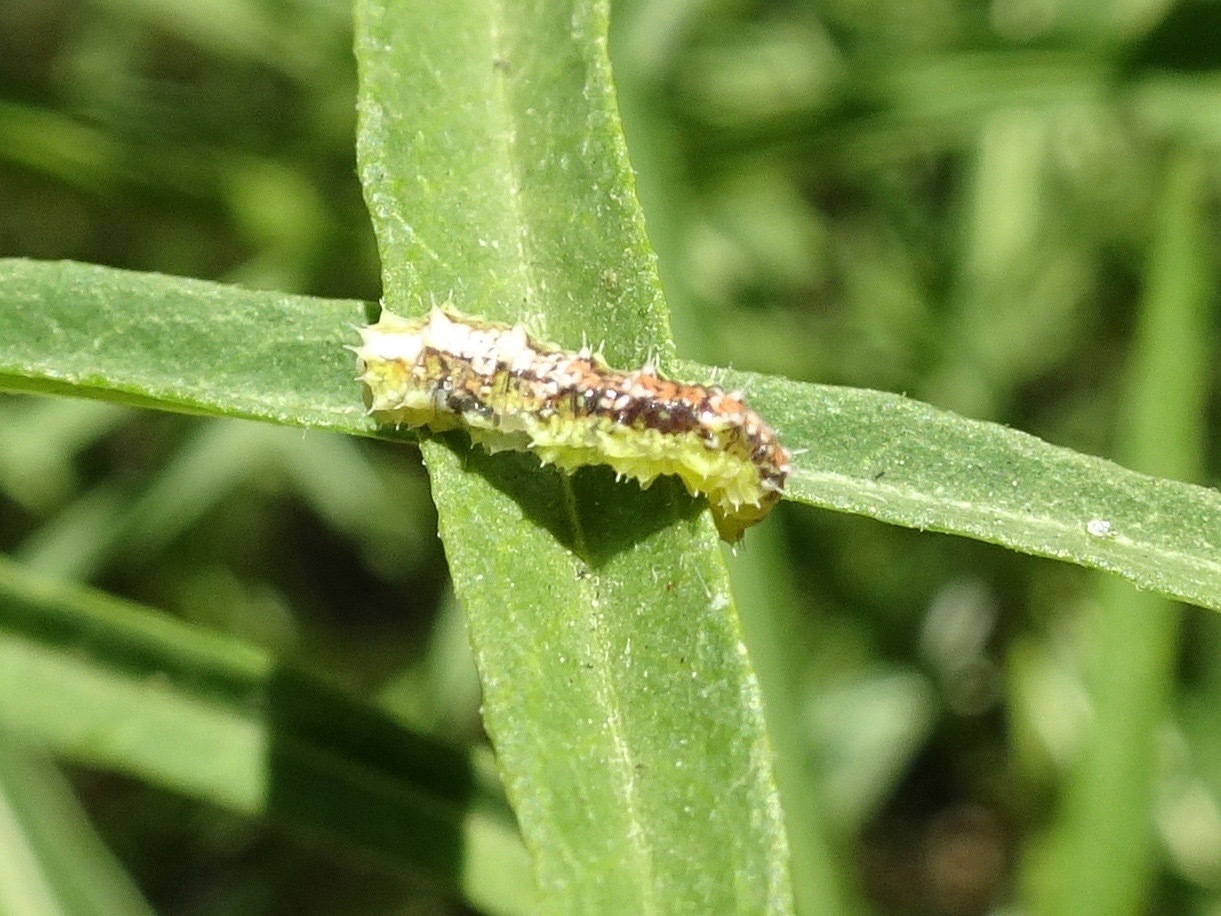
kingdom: Animalia
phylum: Arthropoda
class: Insecta
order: Diptera
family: Syrphidae
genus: Dioprosopa
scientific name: Dioprosopa clavatus
